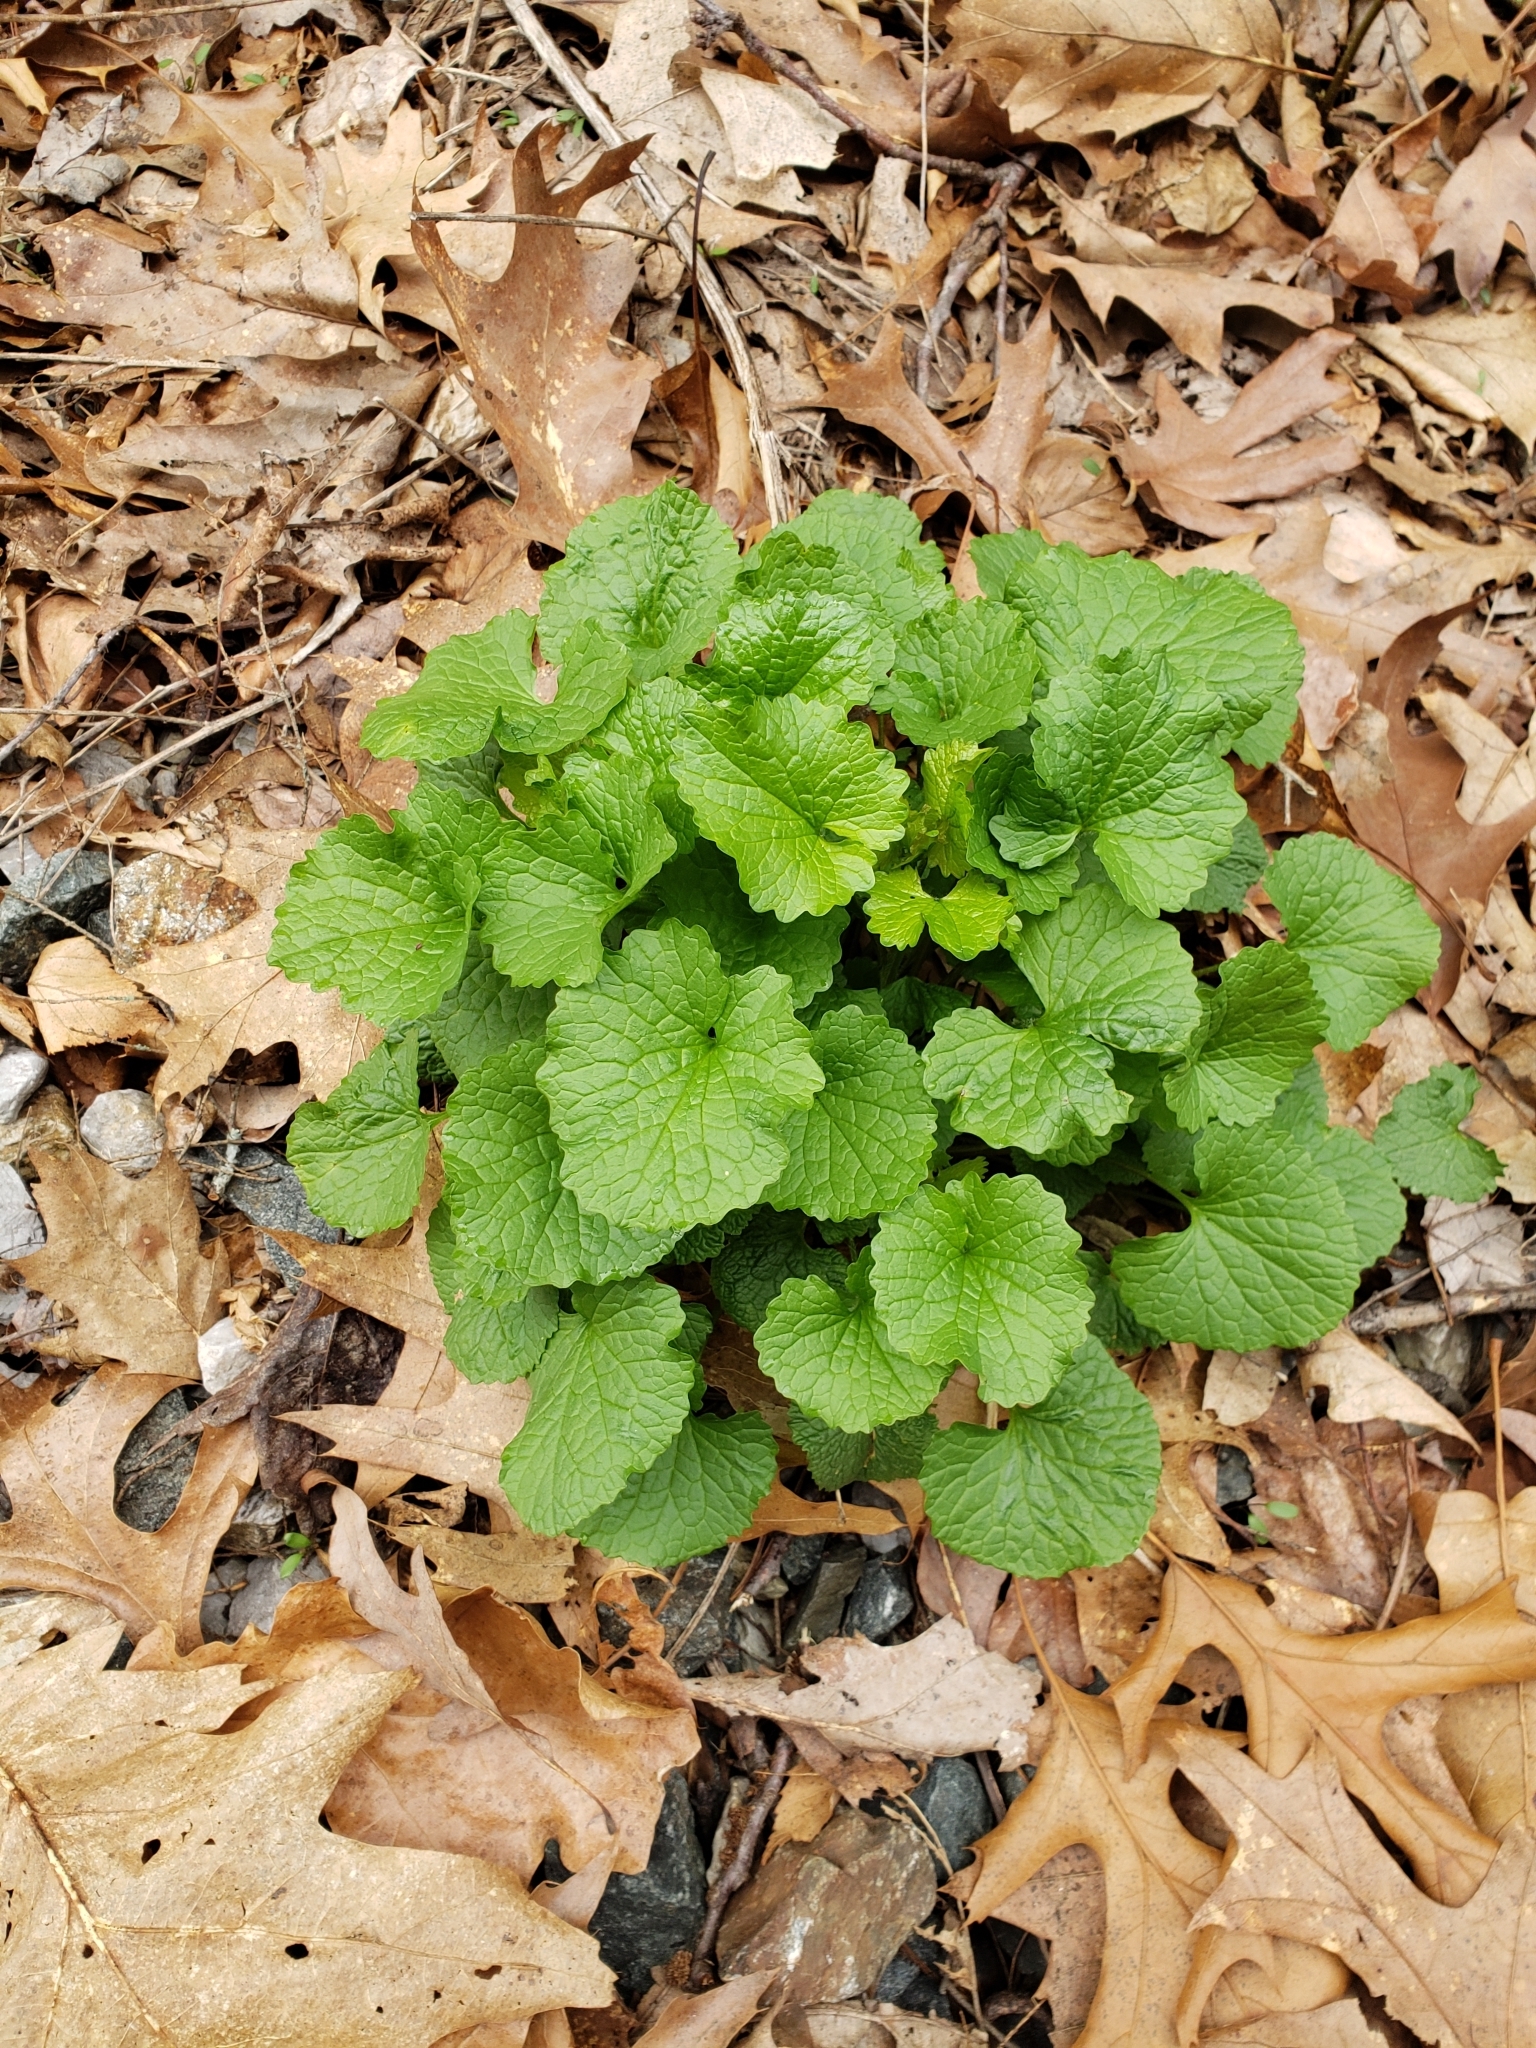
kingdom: Plantae
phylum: Tracheophyta
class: Magnoliopsida
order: Brassicales
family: Brassicaceae
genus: Alliaria
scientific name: Alliaria petiolata
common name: Garlic mustard
